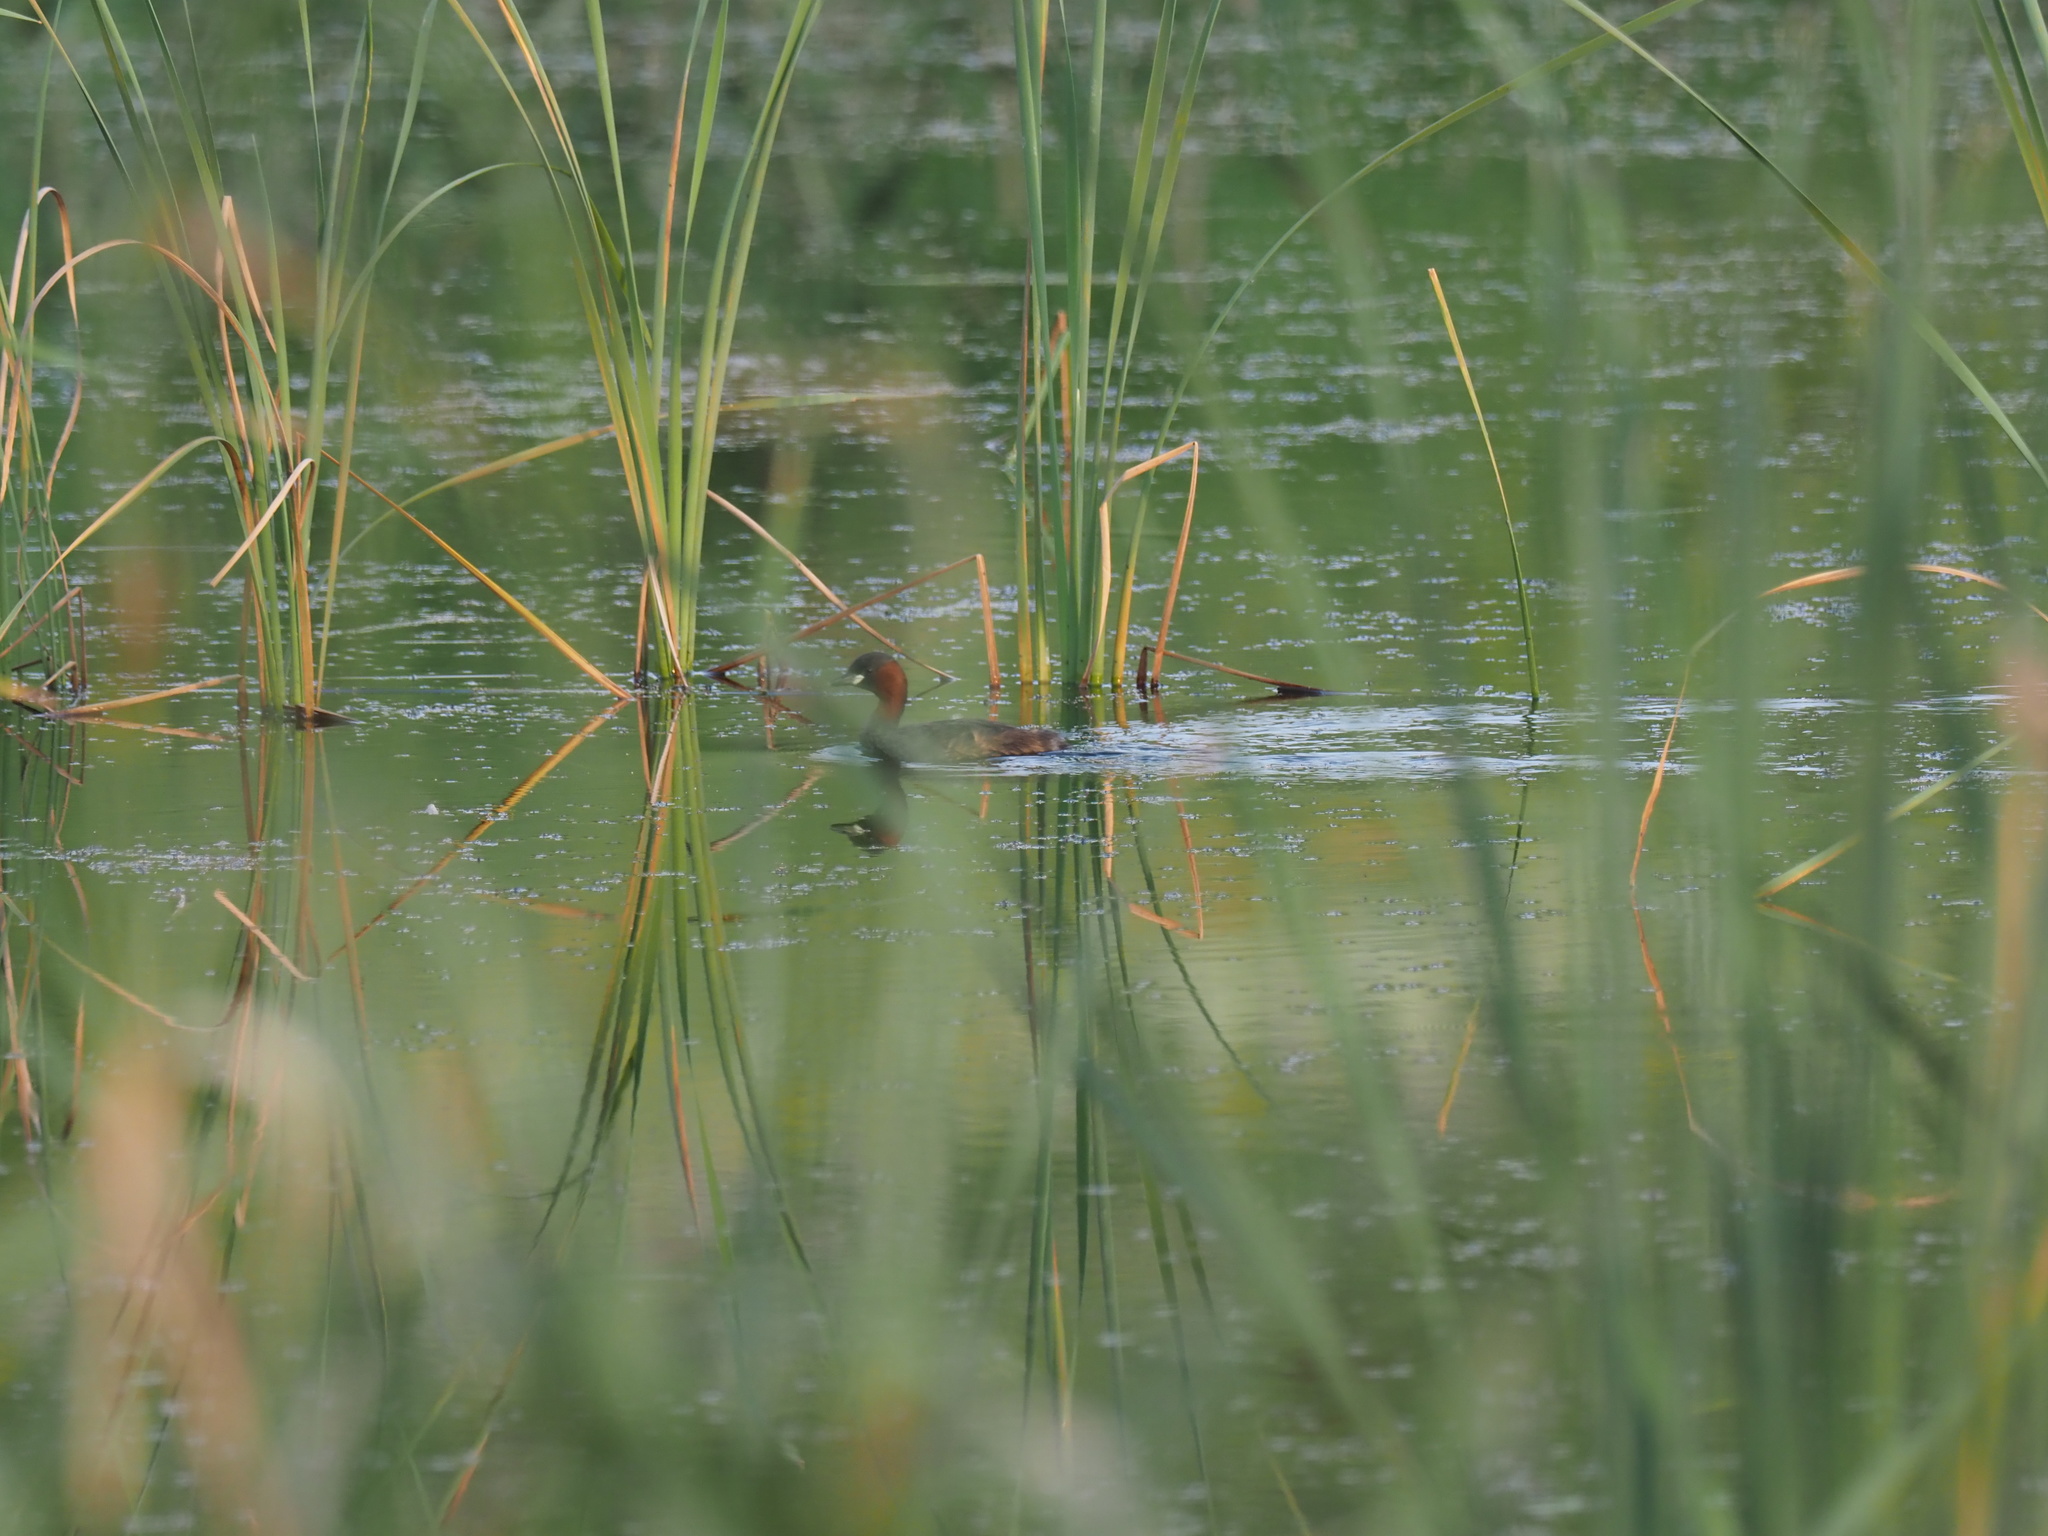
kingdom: Animalia
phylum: Chordata
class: Aves
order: Podicipediformes
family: Podicipedidae
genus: Tachybaptus
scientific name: Tachybaptus ruficollis
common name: Little grebe
